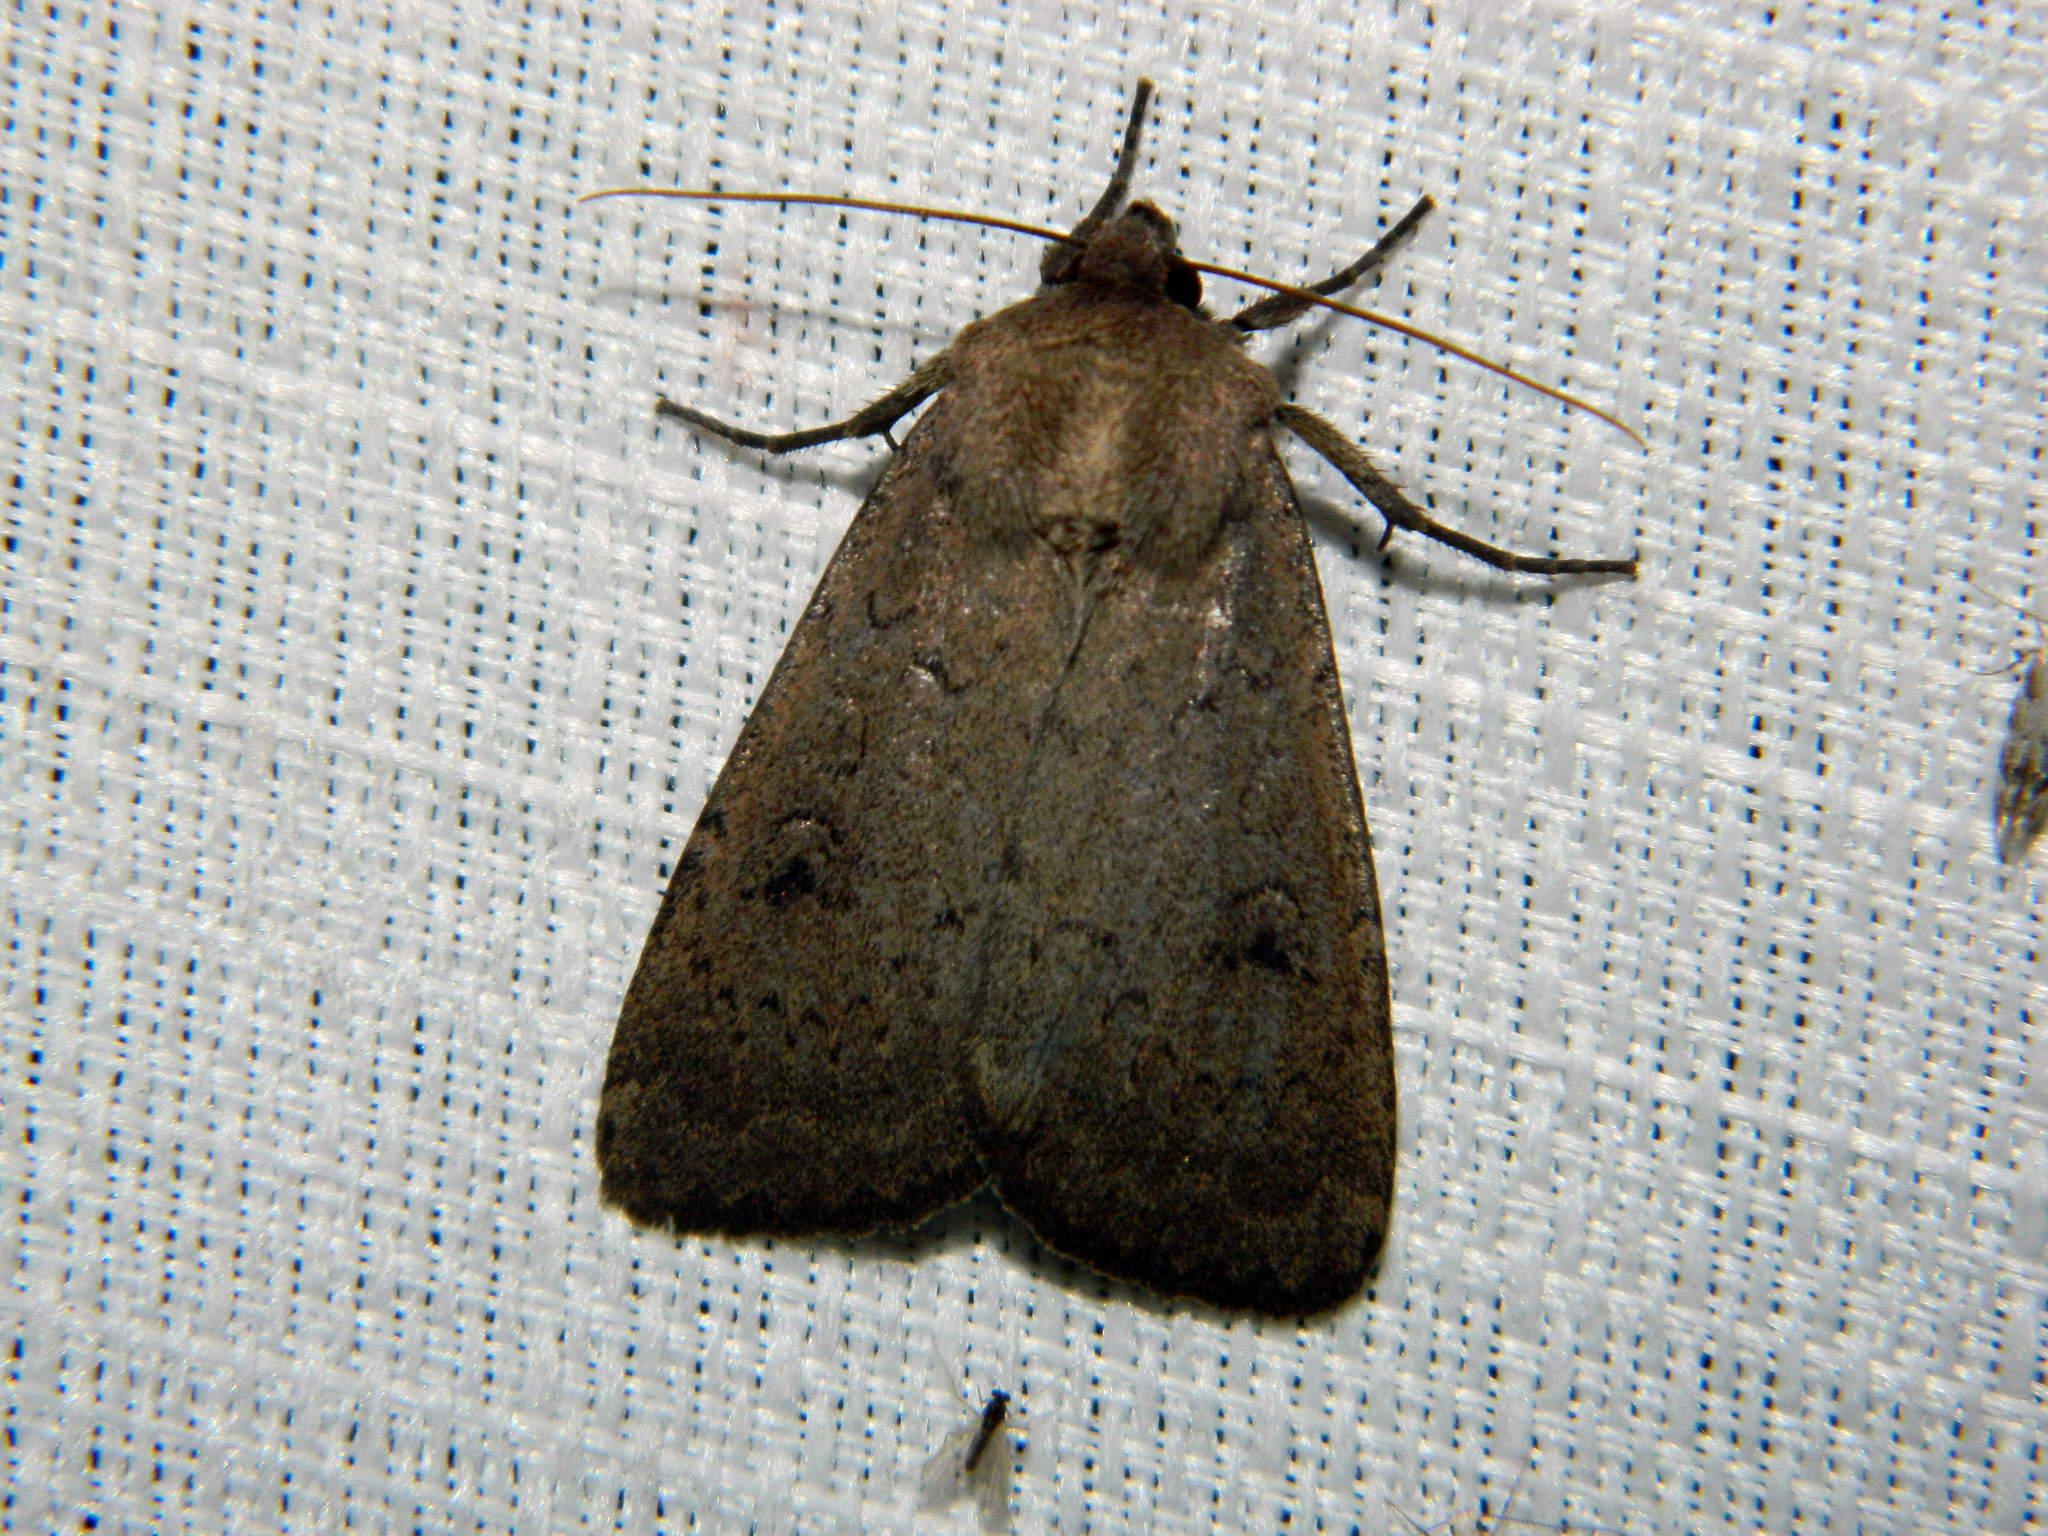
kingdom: Animalia
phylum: Arthropoda
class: Insecta
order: Lepidoptera
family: Noctuidae
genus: Graphiphora
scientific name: Graphiphora augur
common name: Double dart
